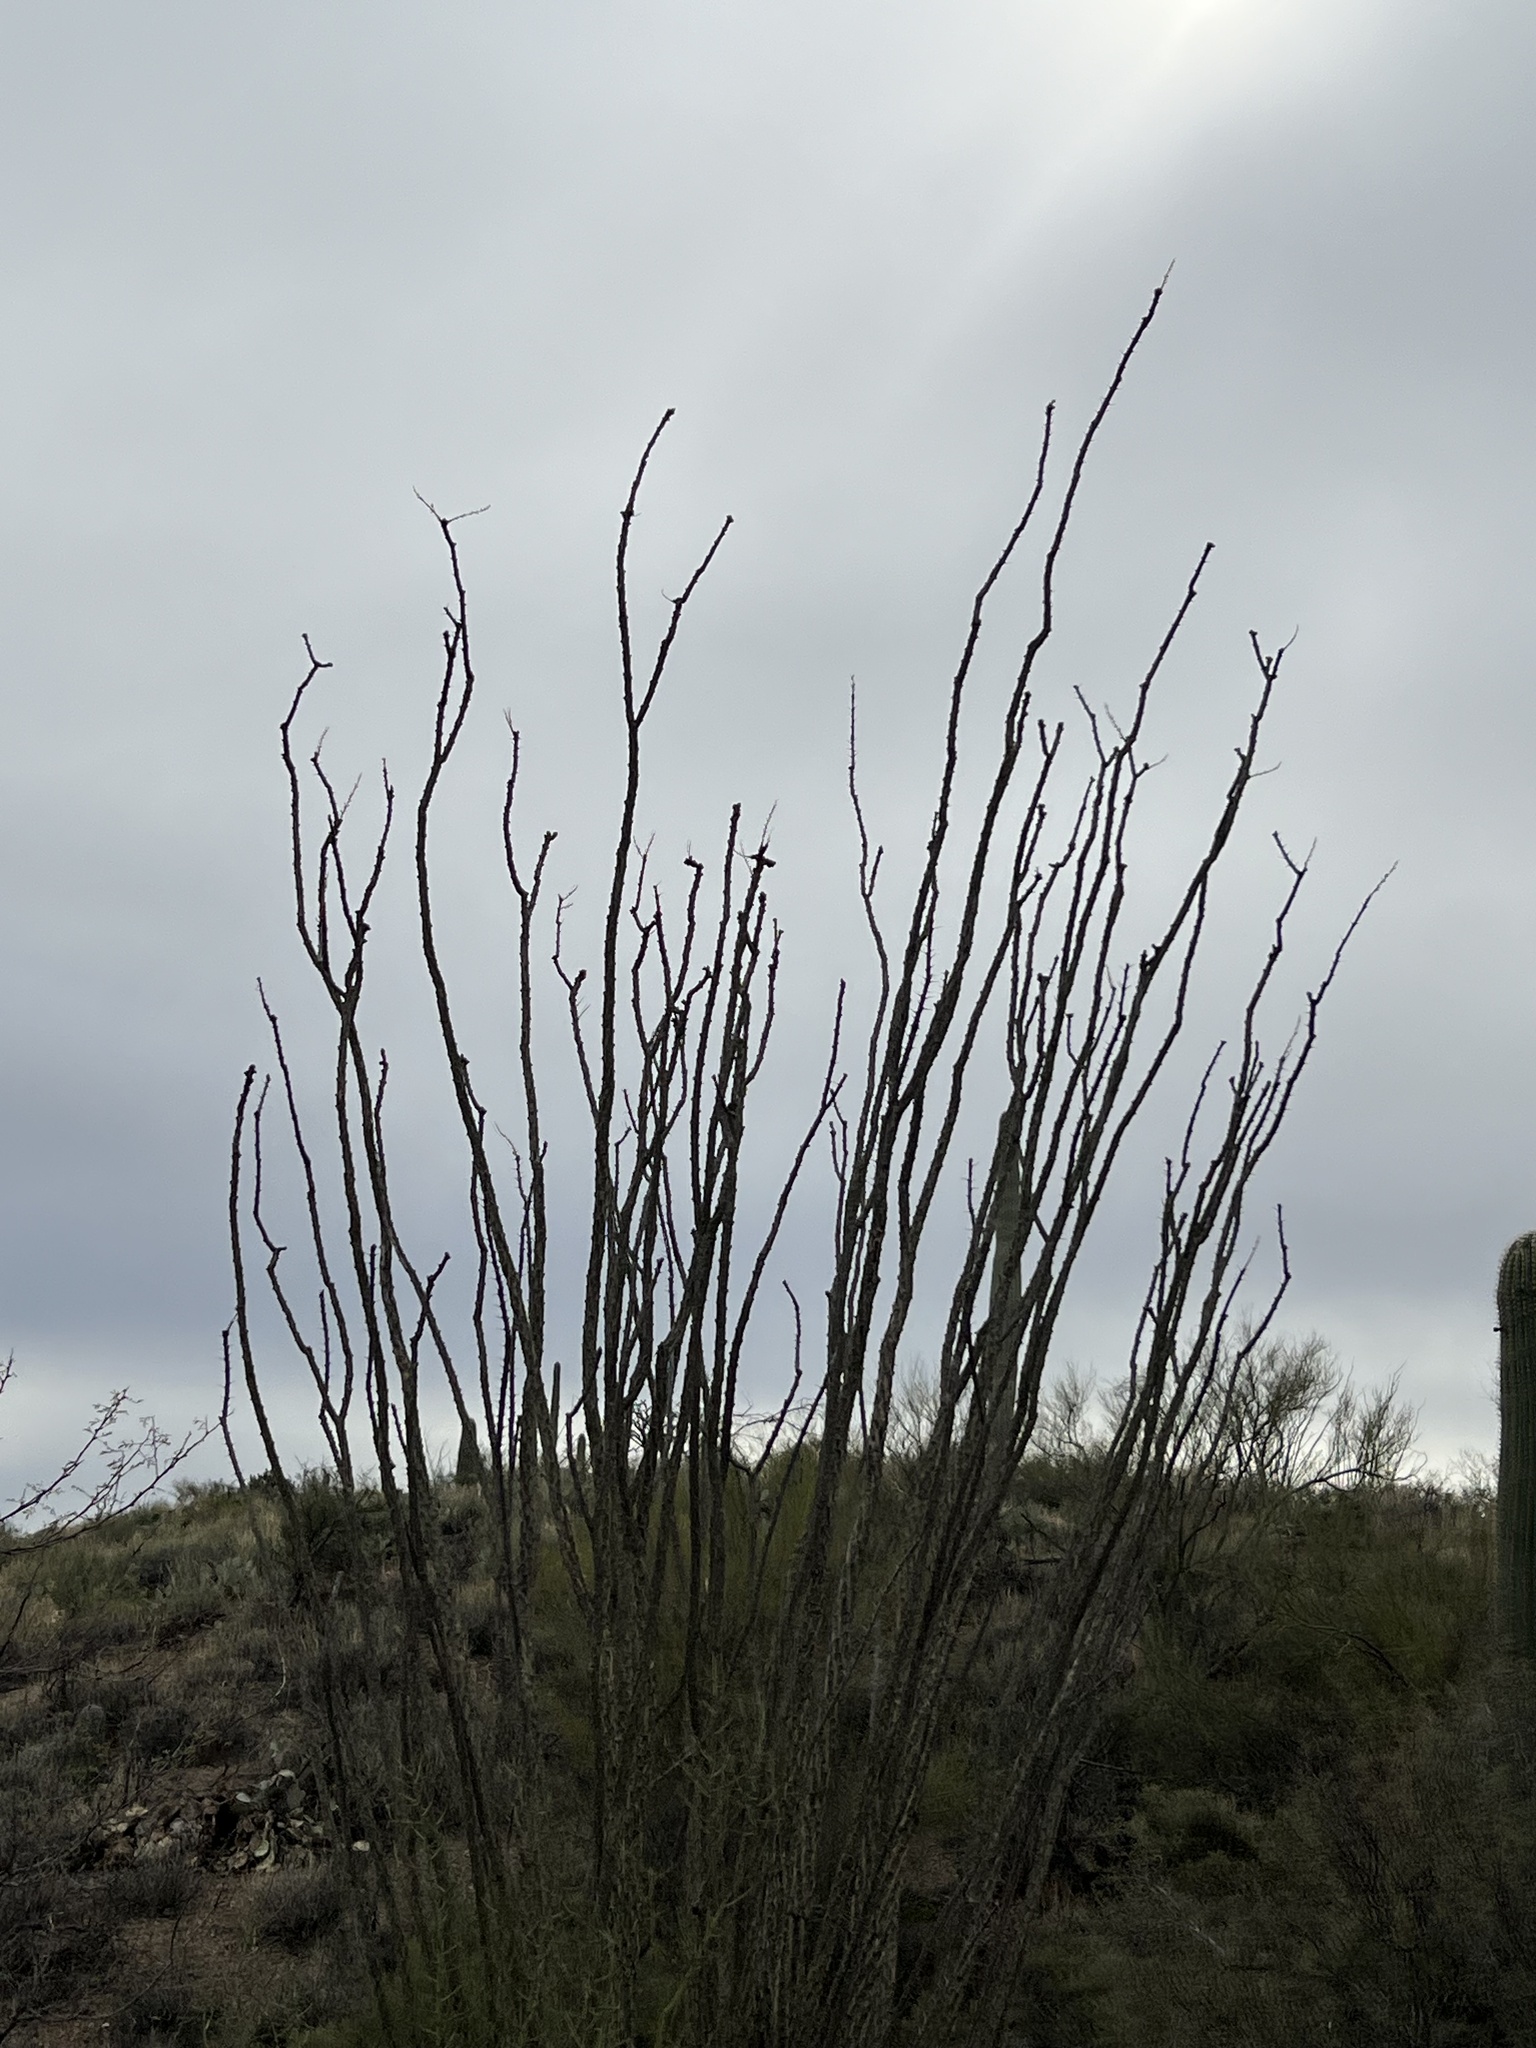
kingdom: Plantae
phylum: Tracheophyta
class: Magnoliopsida
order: Ericales
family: Fouquieriaceae
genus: Fouquieria
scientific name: Fouquieria splendens
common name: Vine-cactus
